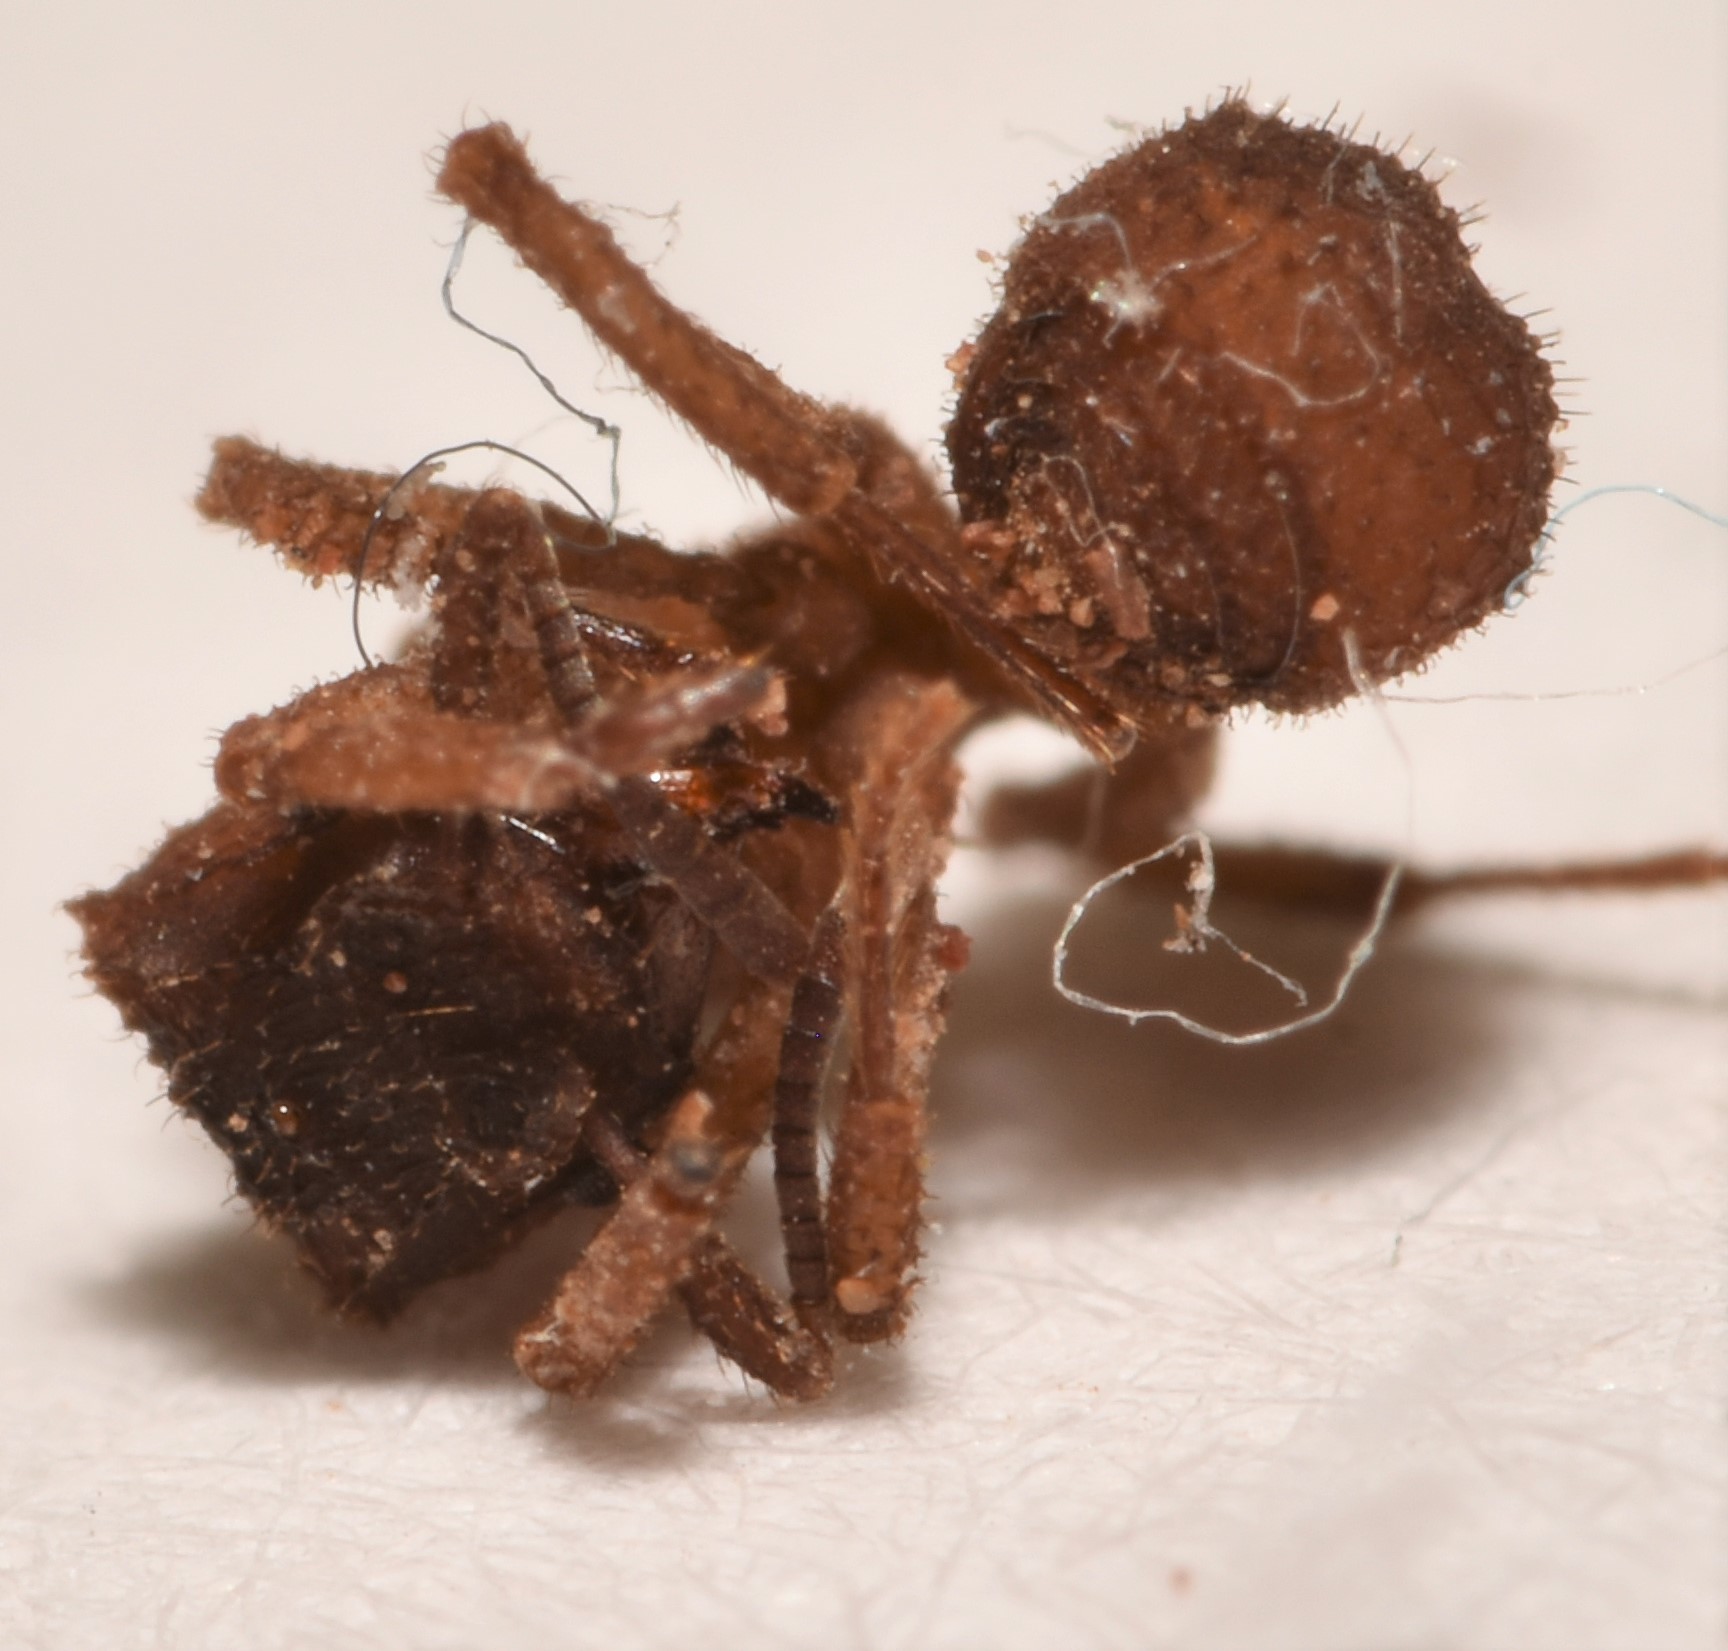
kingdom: Animalia
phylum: Arthropoda
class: Insecta
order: Hymenoptera
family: Formicidae
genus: Mycetomoellerius
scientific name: Mycetomoellerius
